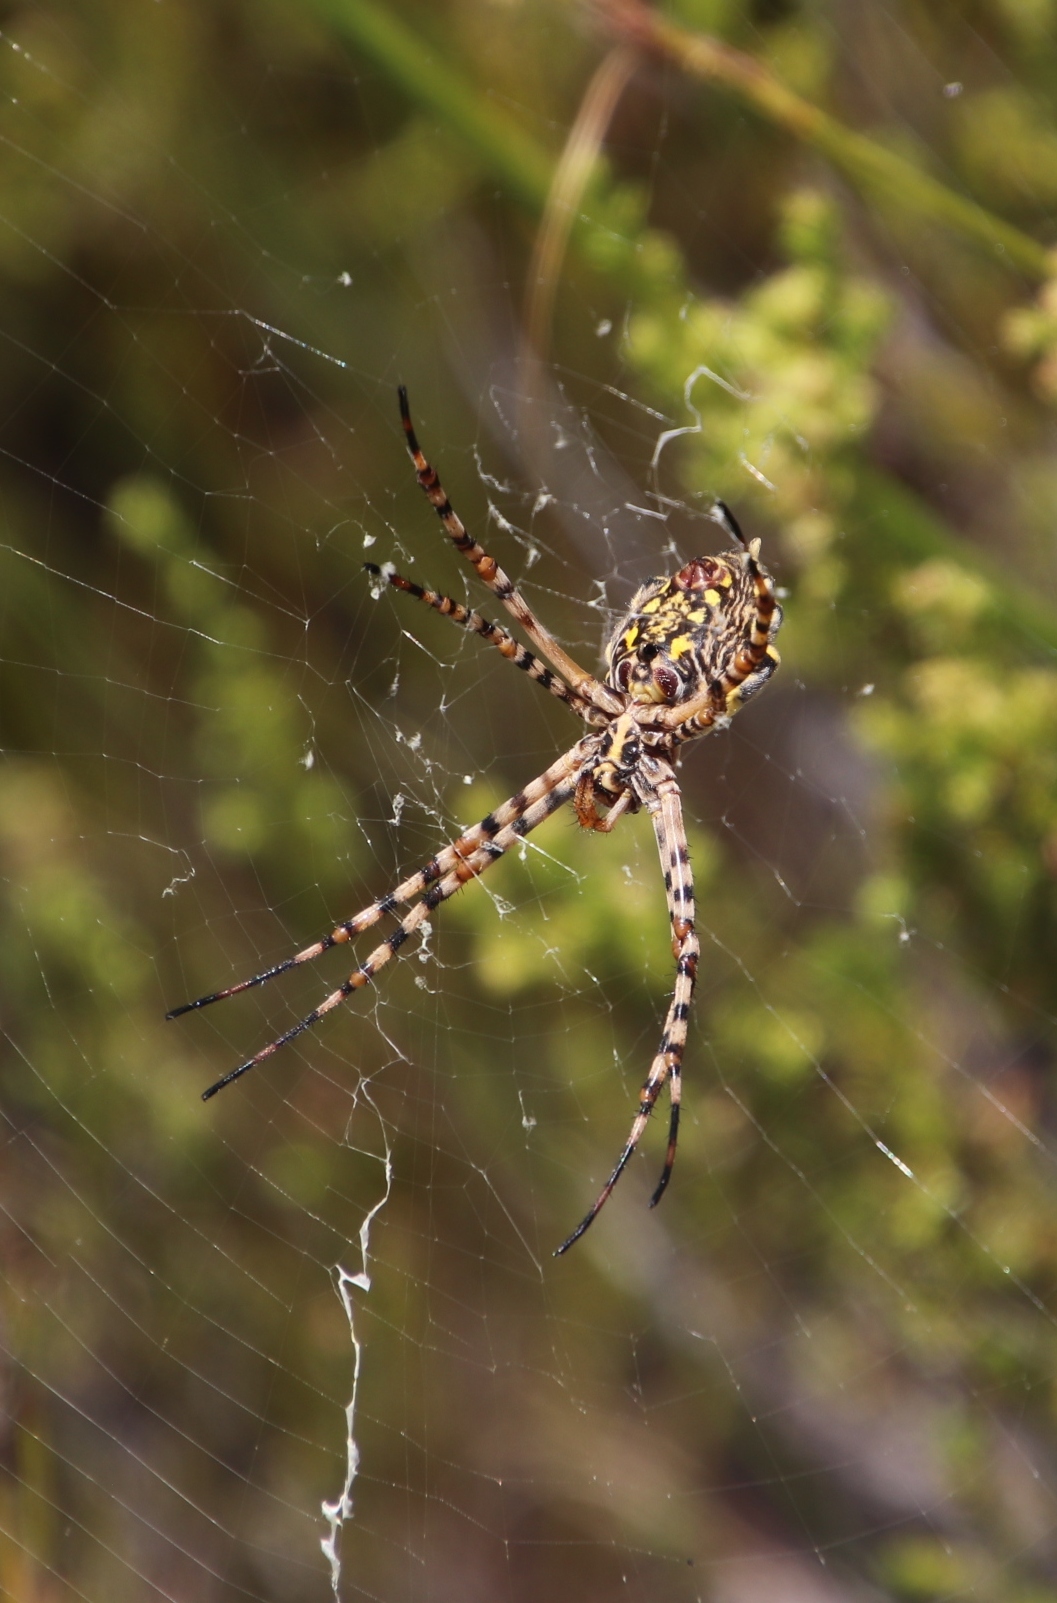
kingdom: Animalia
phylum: Arthropoda
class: Arachnida
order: Araneae
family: Araneidae
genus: Argiope
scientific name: Argiope australis
